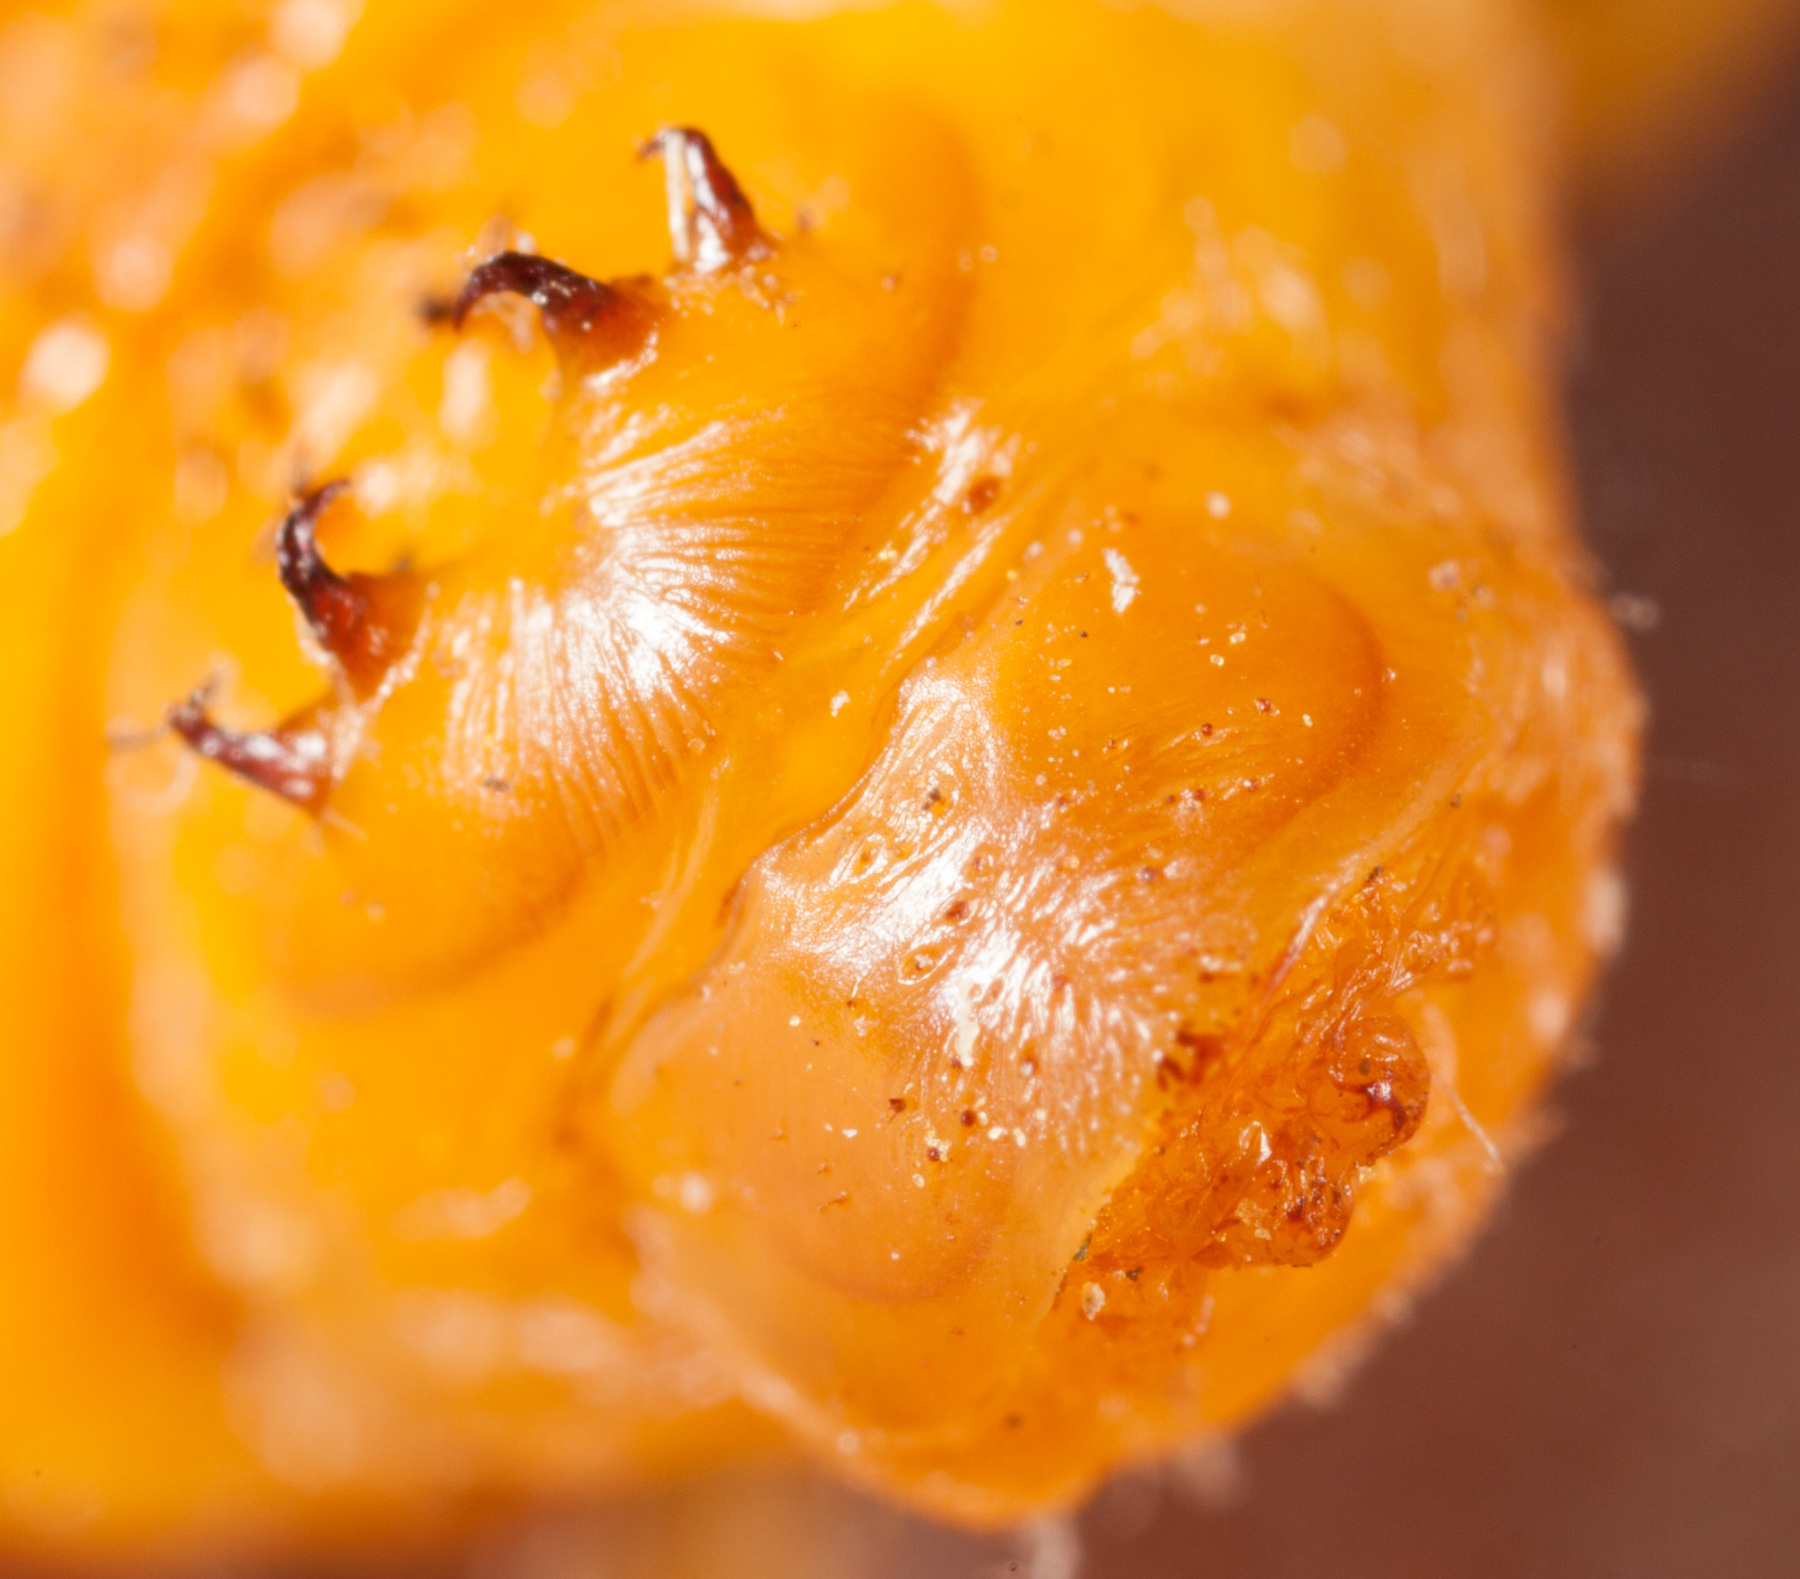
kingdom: Animalia
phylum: Arthropoda
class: Insecta
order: Coleoptera
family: Cerambycidae
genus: Knulliana
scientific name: Knulliana cincta
